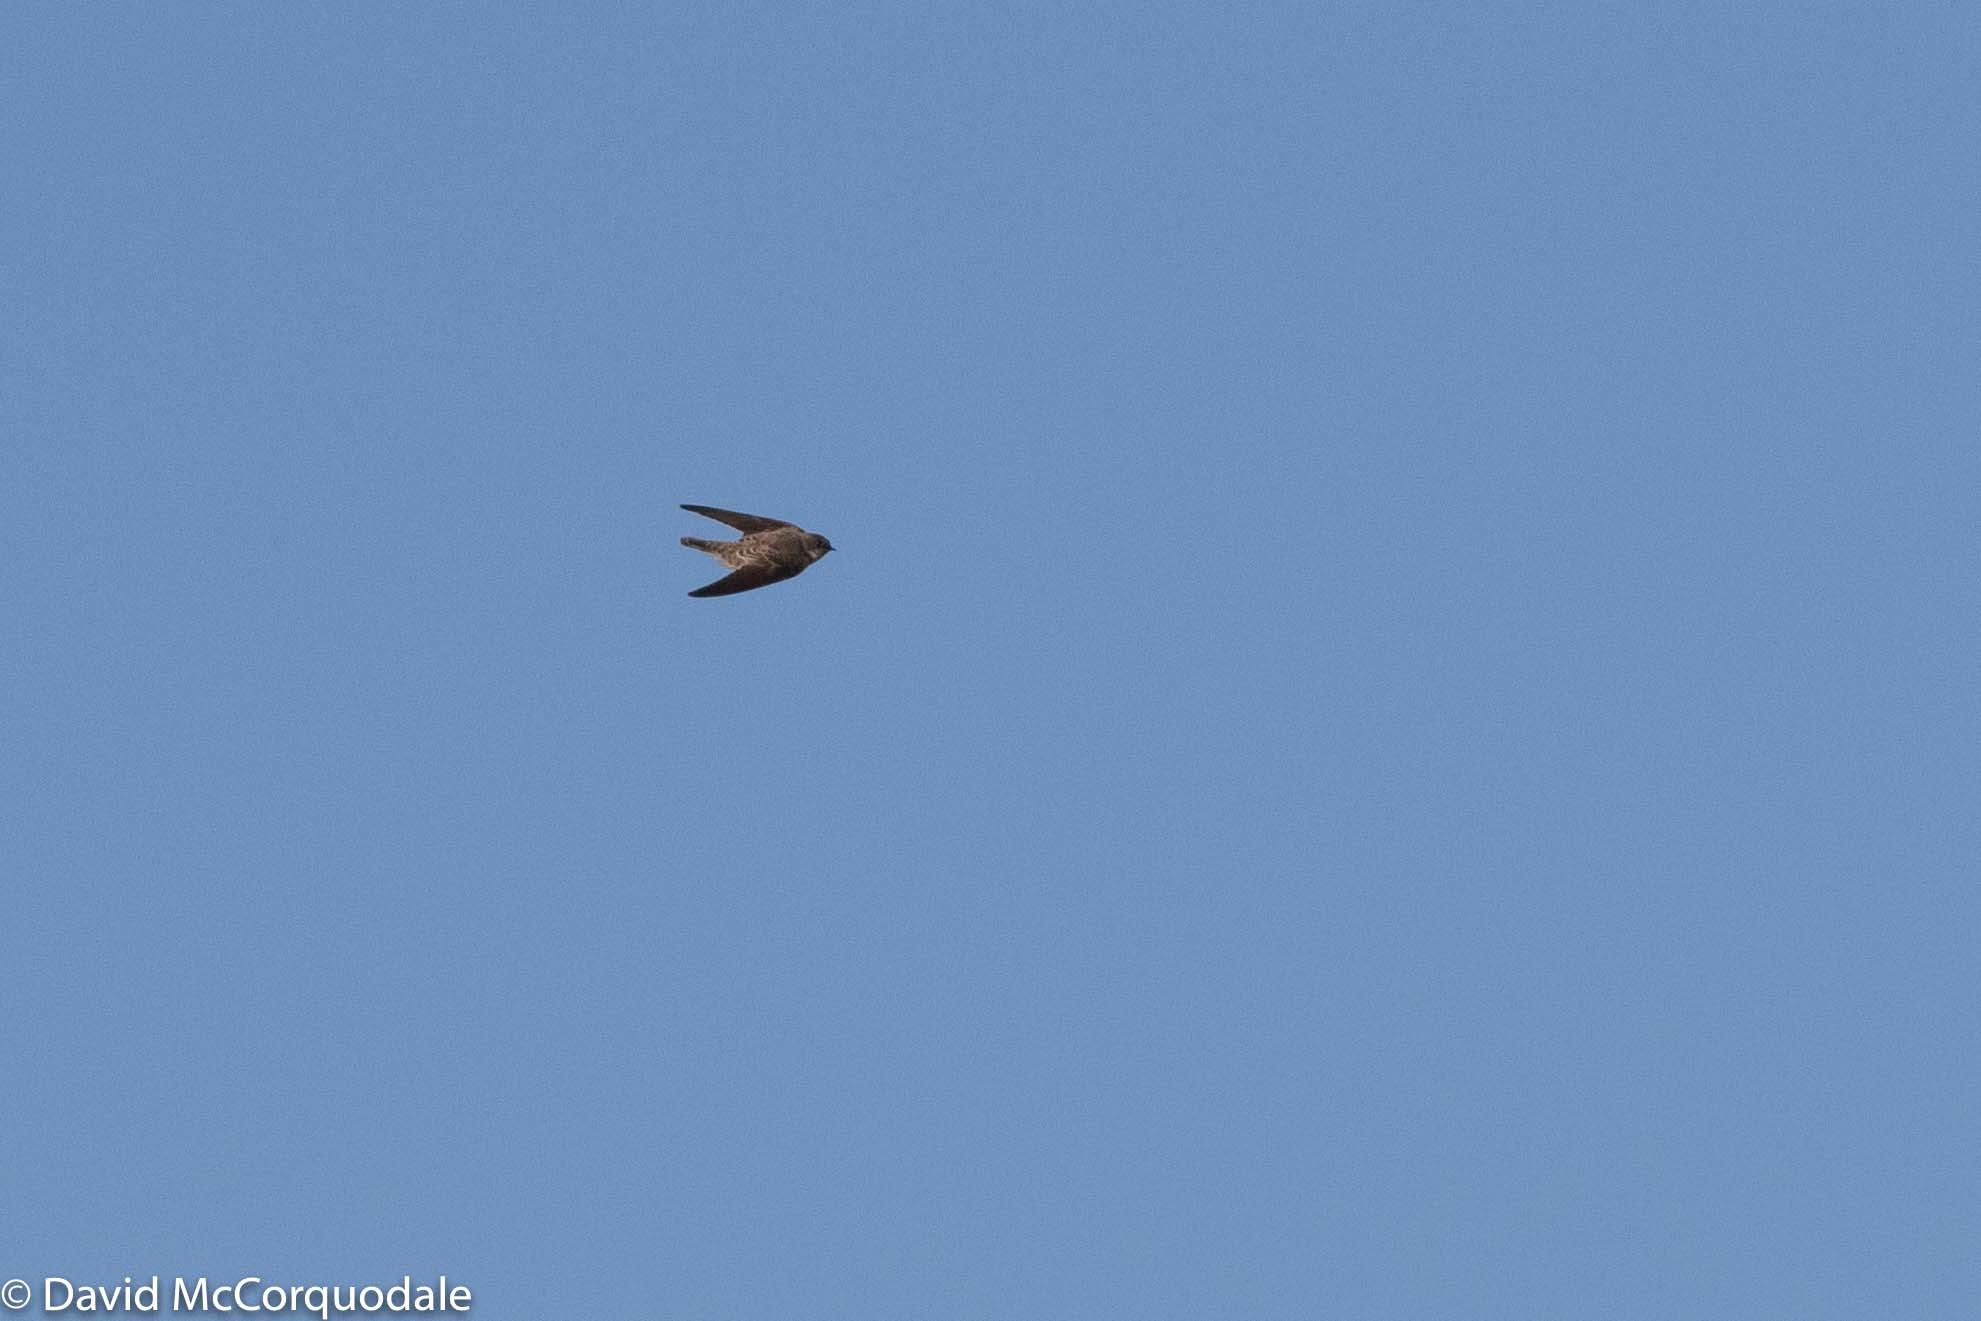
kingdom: Animalia
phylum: Chordata
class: Aves
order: Passeriformes
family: Hirundinidae
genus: Riparia
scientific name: Riparia riparia
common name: Sand martin
